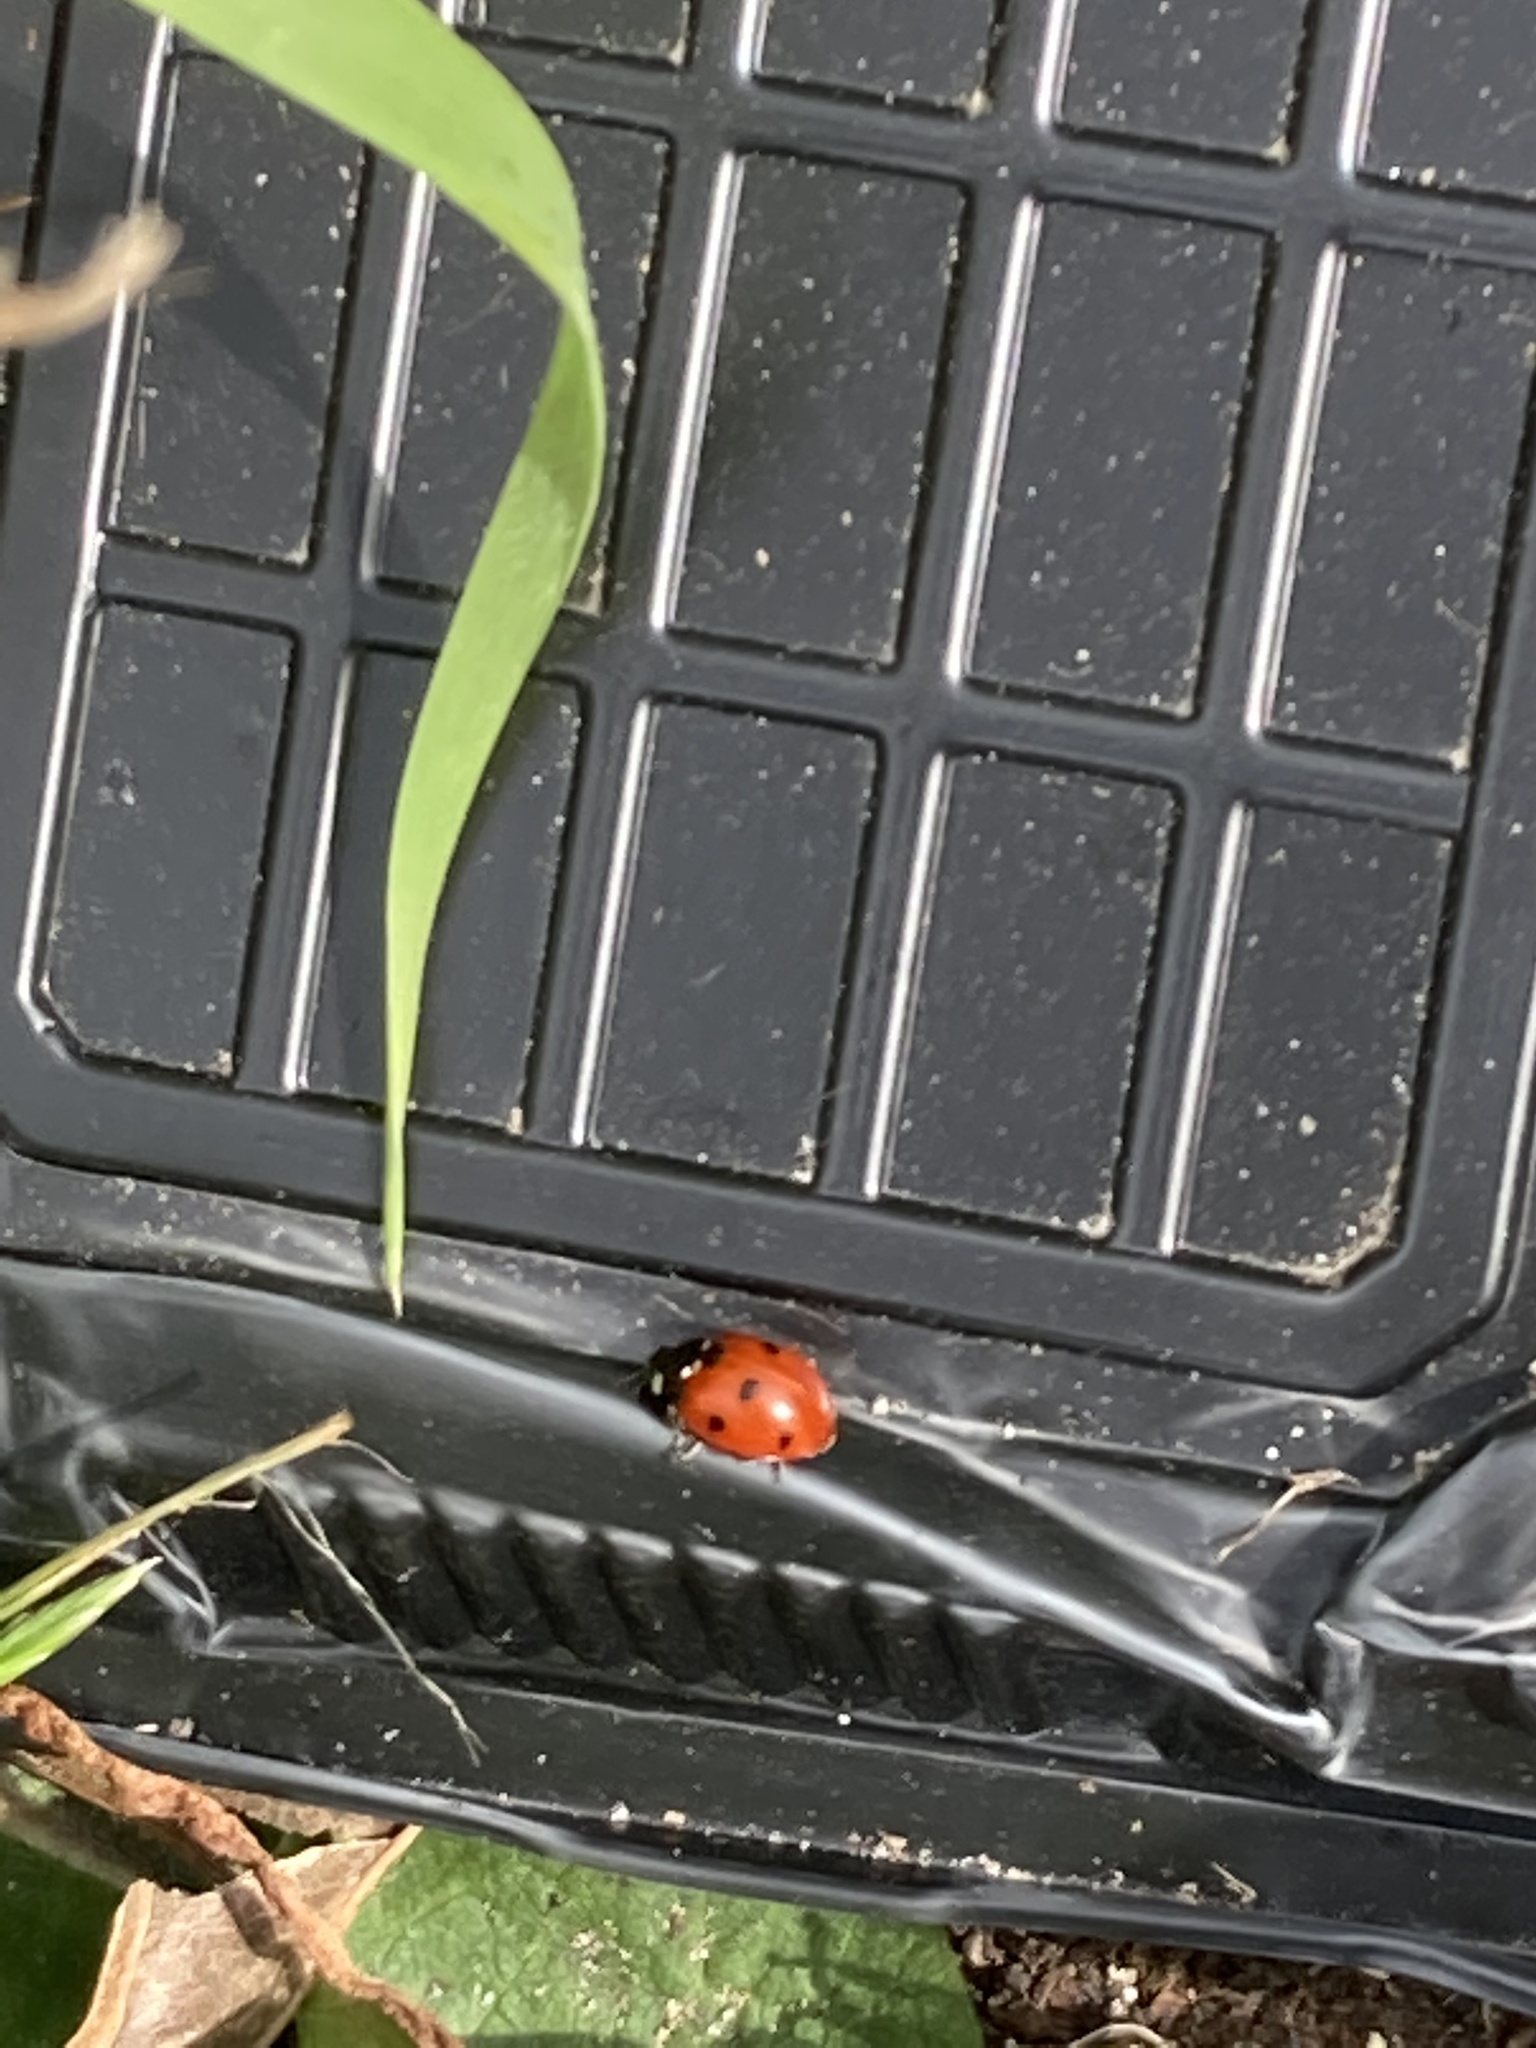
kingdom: Animalia
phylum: Arthropoda
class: Insecta
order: Coleoptera
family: Coccinellidae
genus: Coccinella
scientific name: Coccinella septempunctata
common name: Sevenspotted lady beetle
